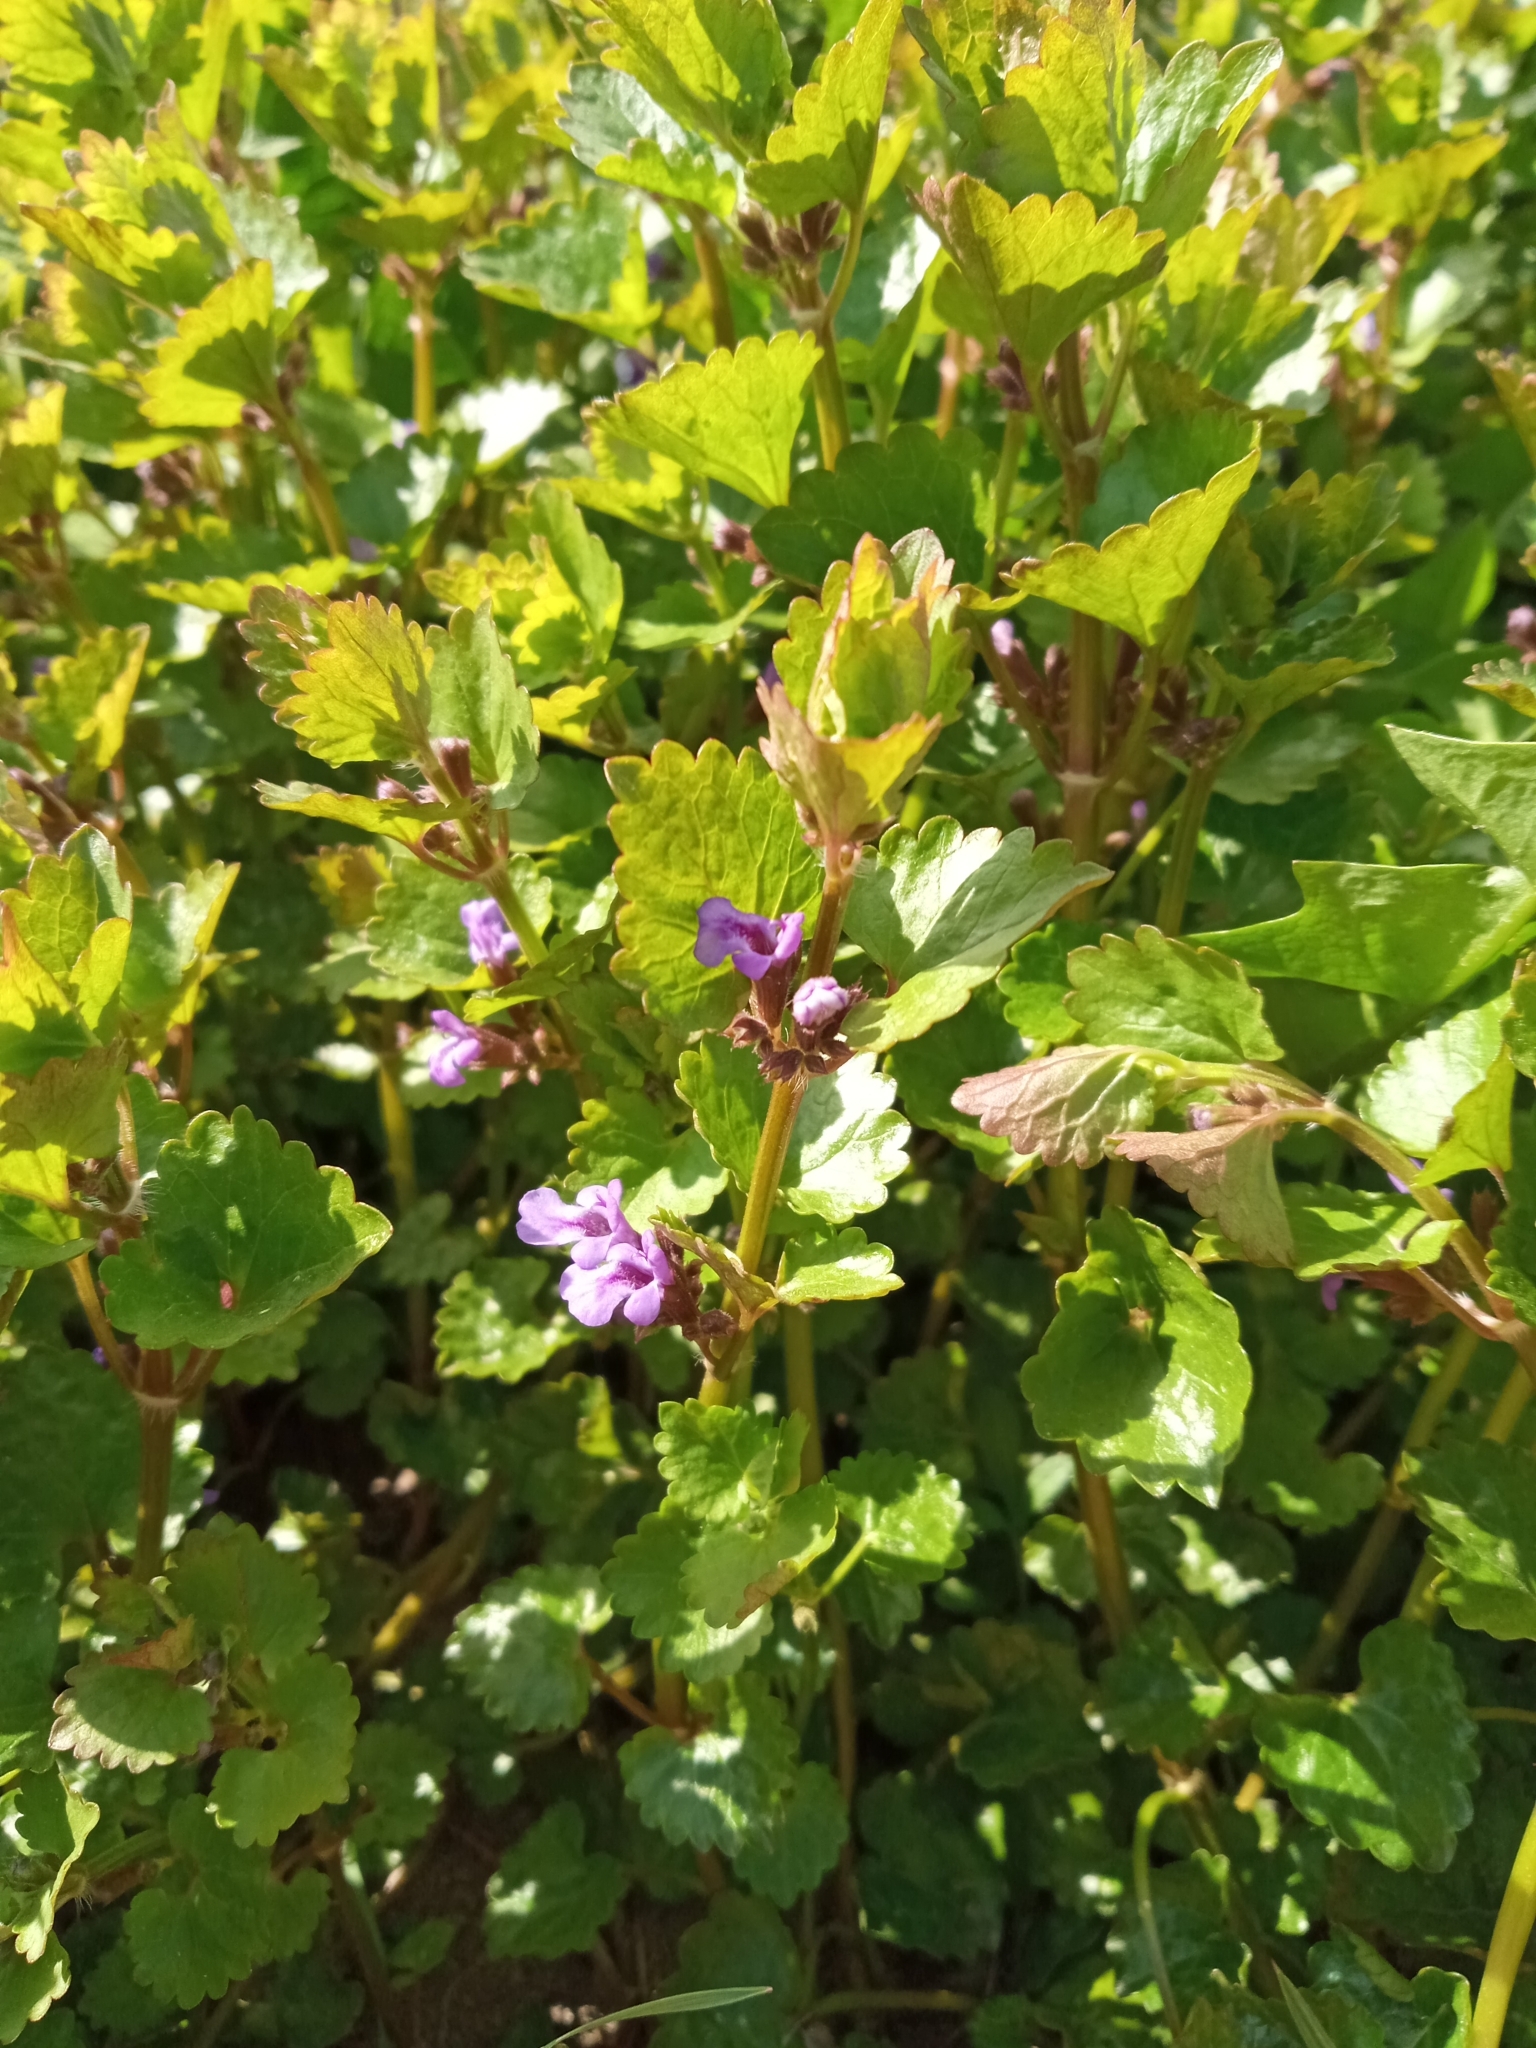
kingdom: Plantae
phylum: Tracheophyta
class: Magnoliopsida
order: Lamiales
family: Lamiaceae
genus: Glechoma
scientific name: Glechoma hederacea
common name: Ground ivy
